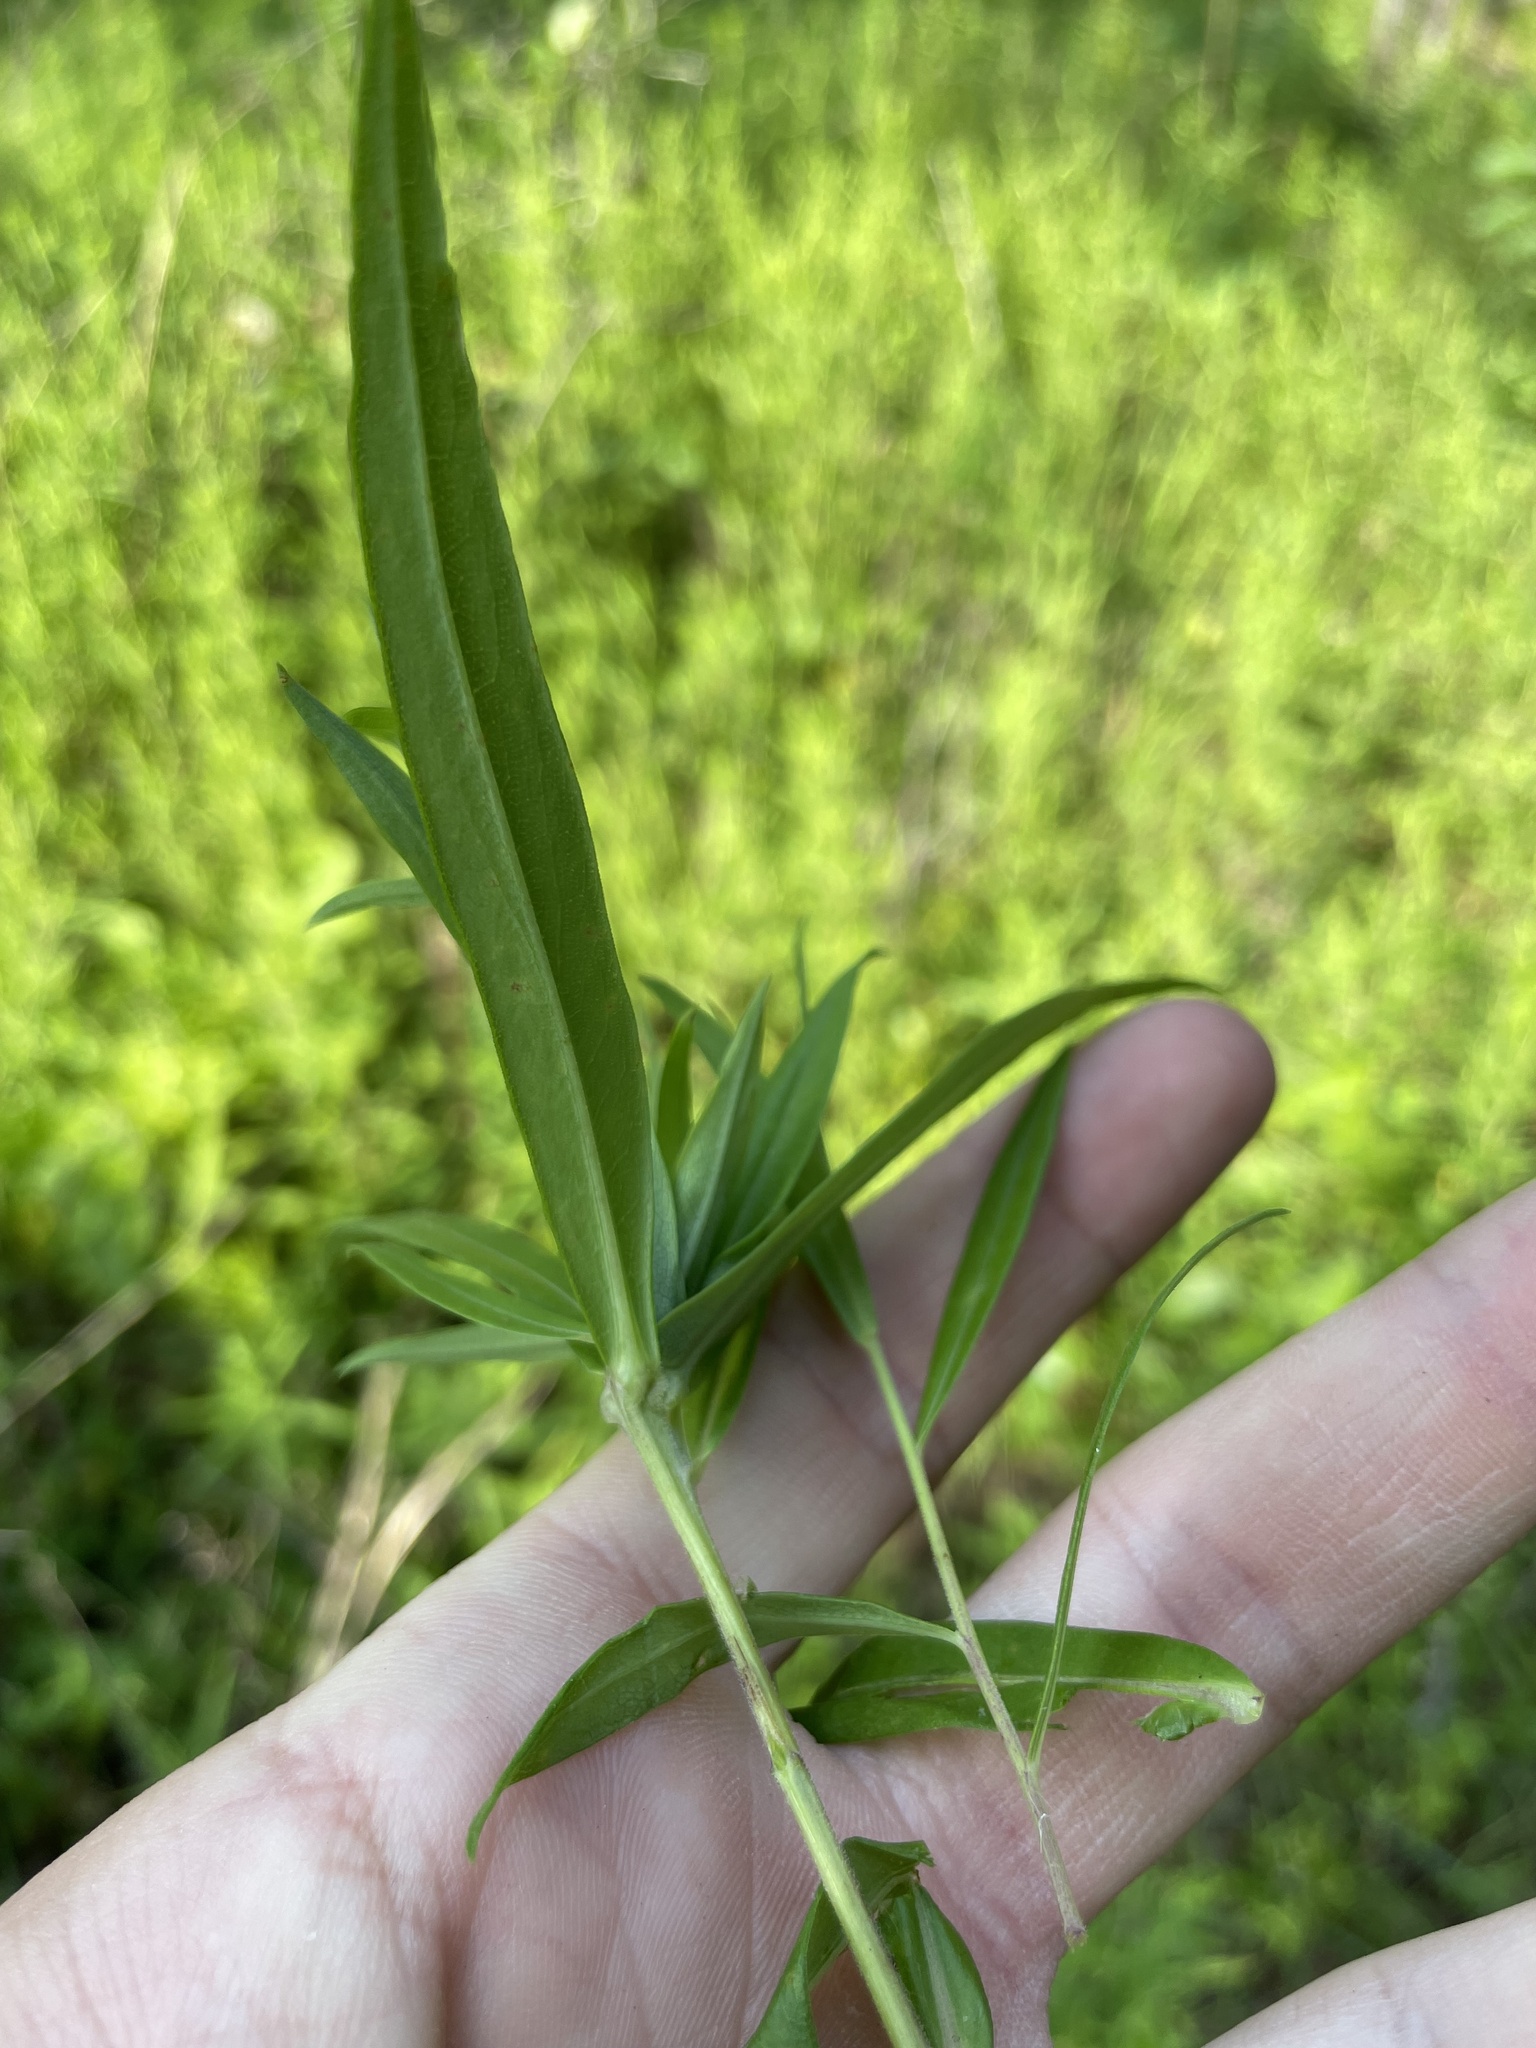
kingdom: Plantae
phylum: Tracheophyta
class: Magnoliopsida
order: Asterales
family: Asteraceae
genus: Symphyotrichum
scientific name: Symphyotrichum praealtum
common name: Willow aster
